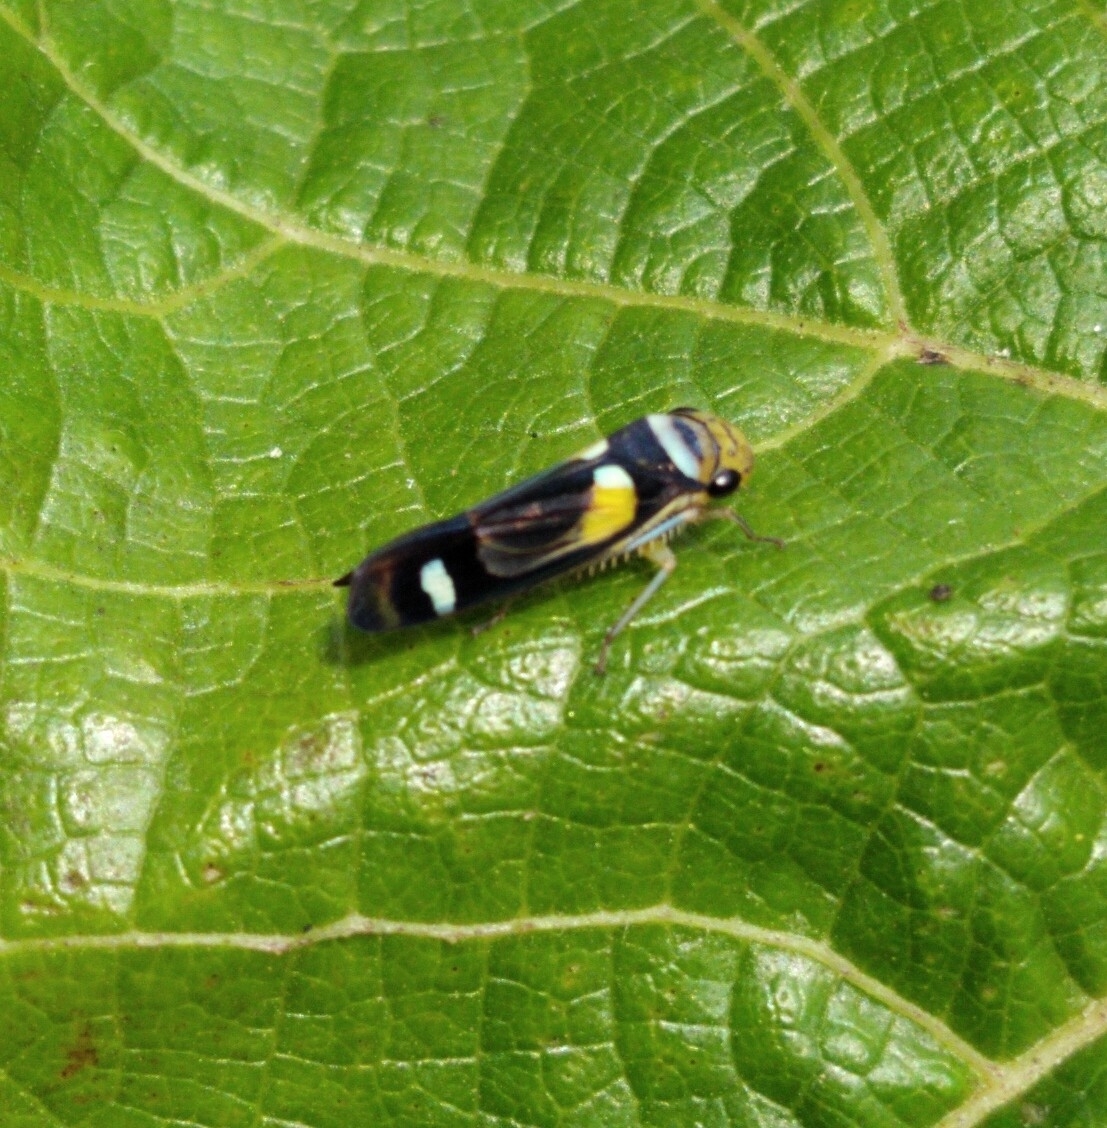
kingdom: Animalia
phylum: Arthropoda
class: Insecta
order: Hemiptera
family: Cicadellidae
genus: Dilobopterus
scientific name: Dilobopterus stolli
